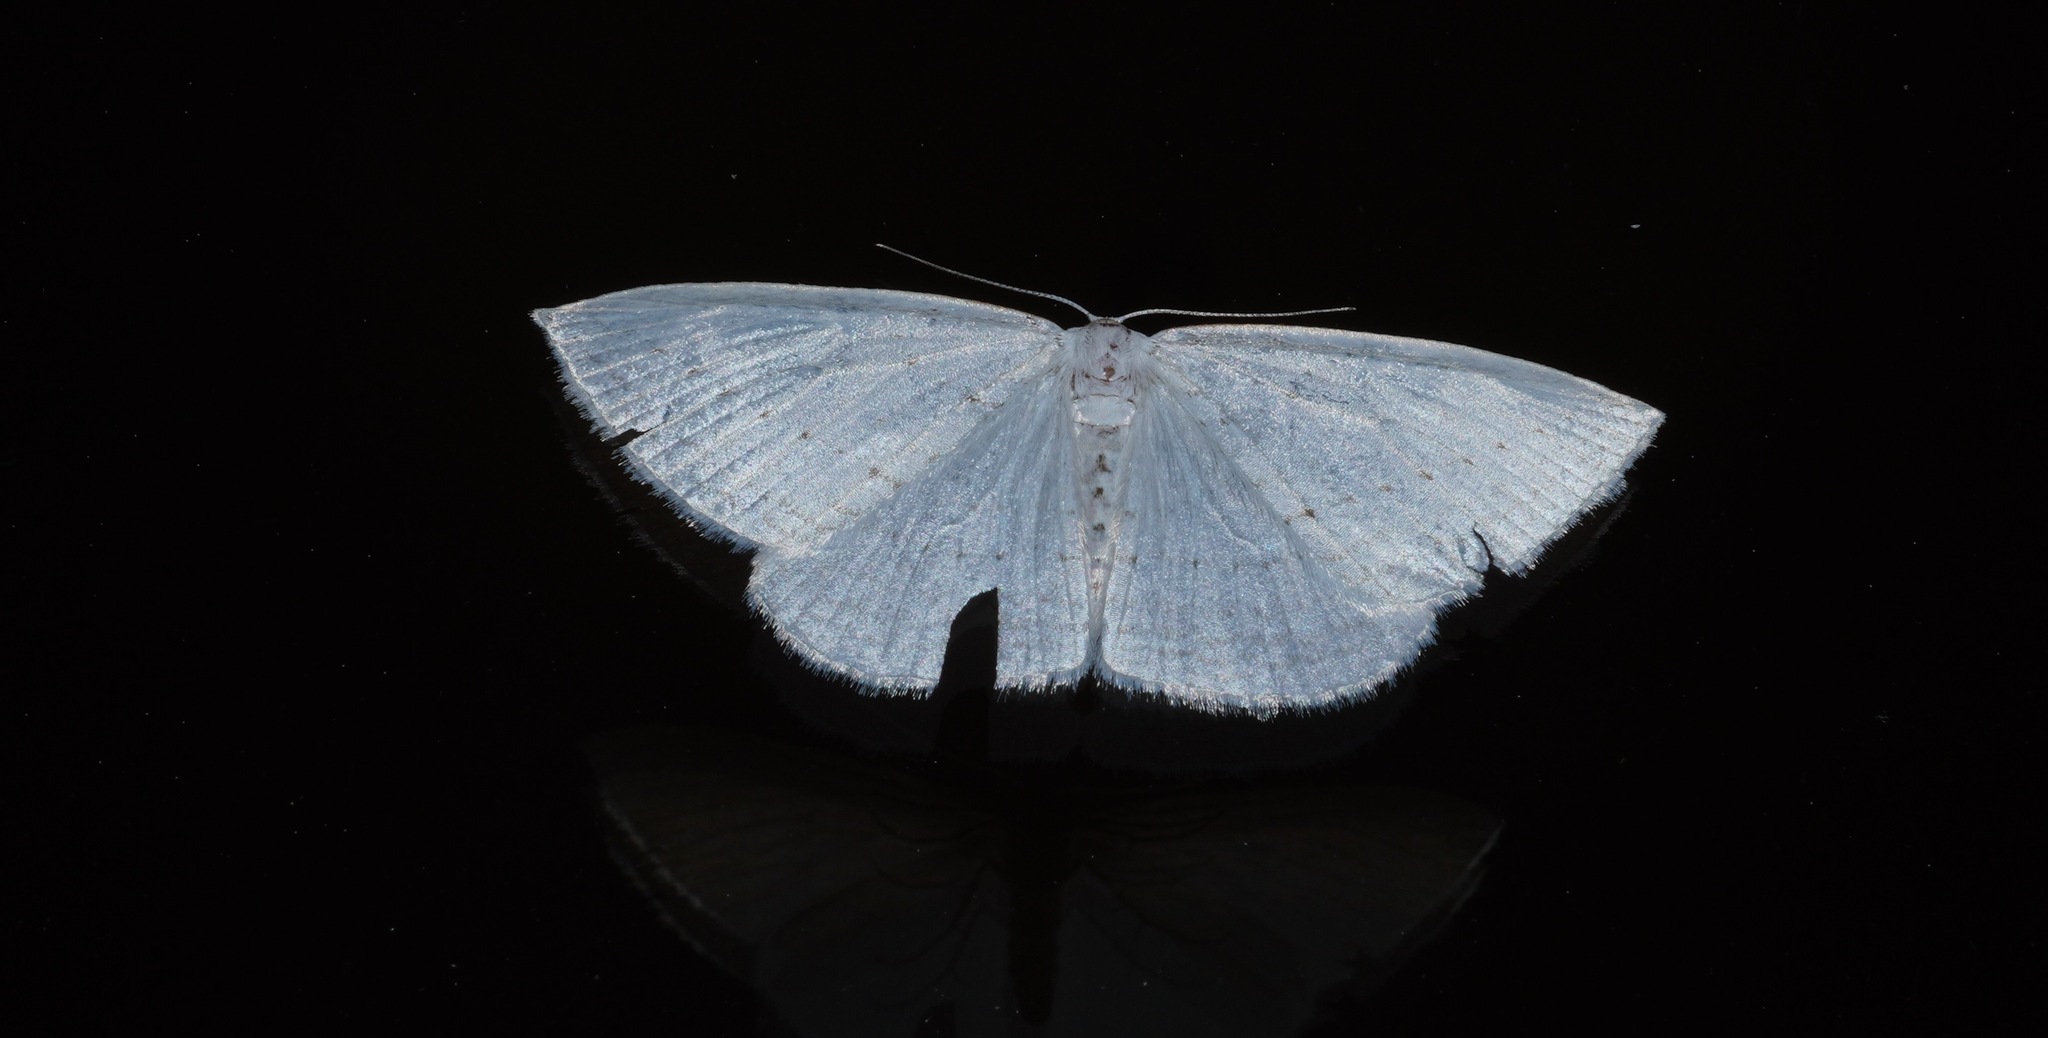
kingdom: Animalia
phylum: Arthropoda
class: Insecta
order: Lepidoptera
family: Geometridae
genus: Orthoclydon
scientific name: Orthoclydon praefectata
